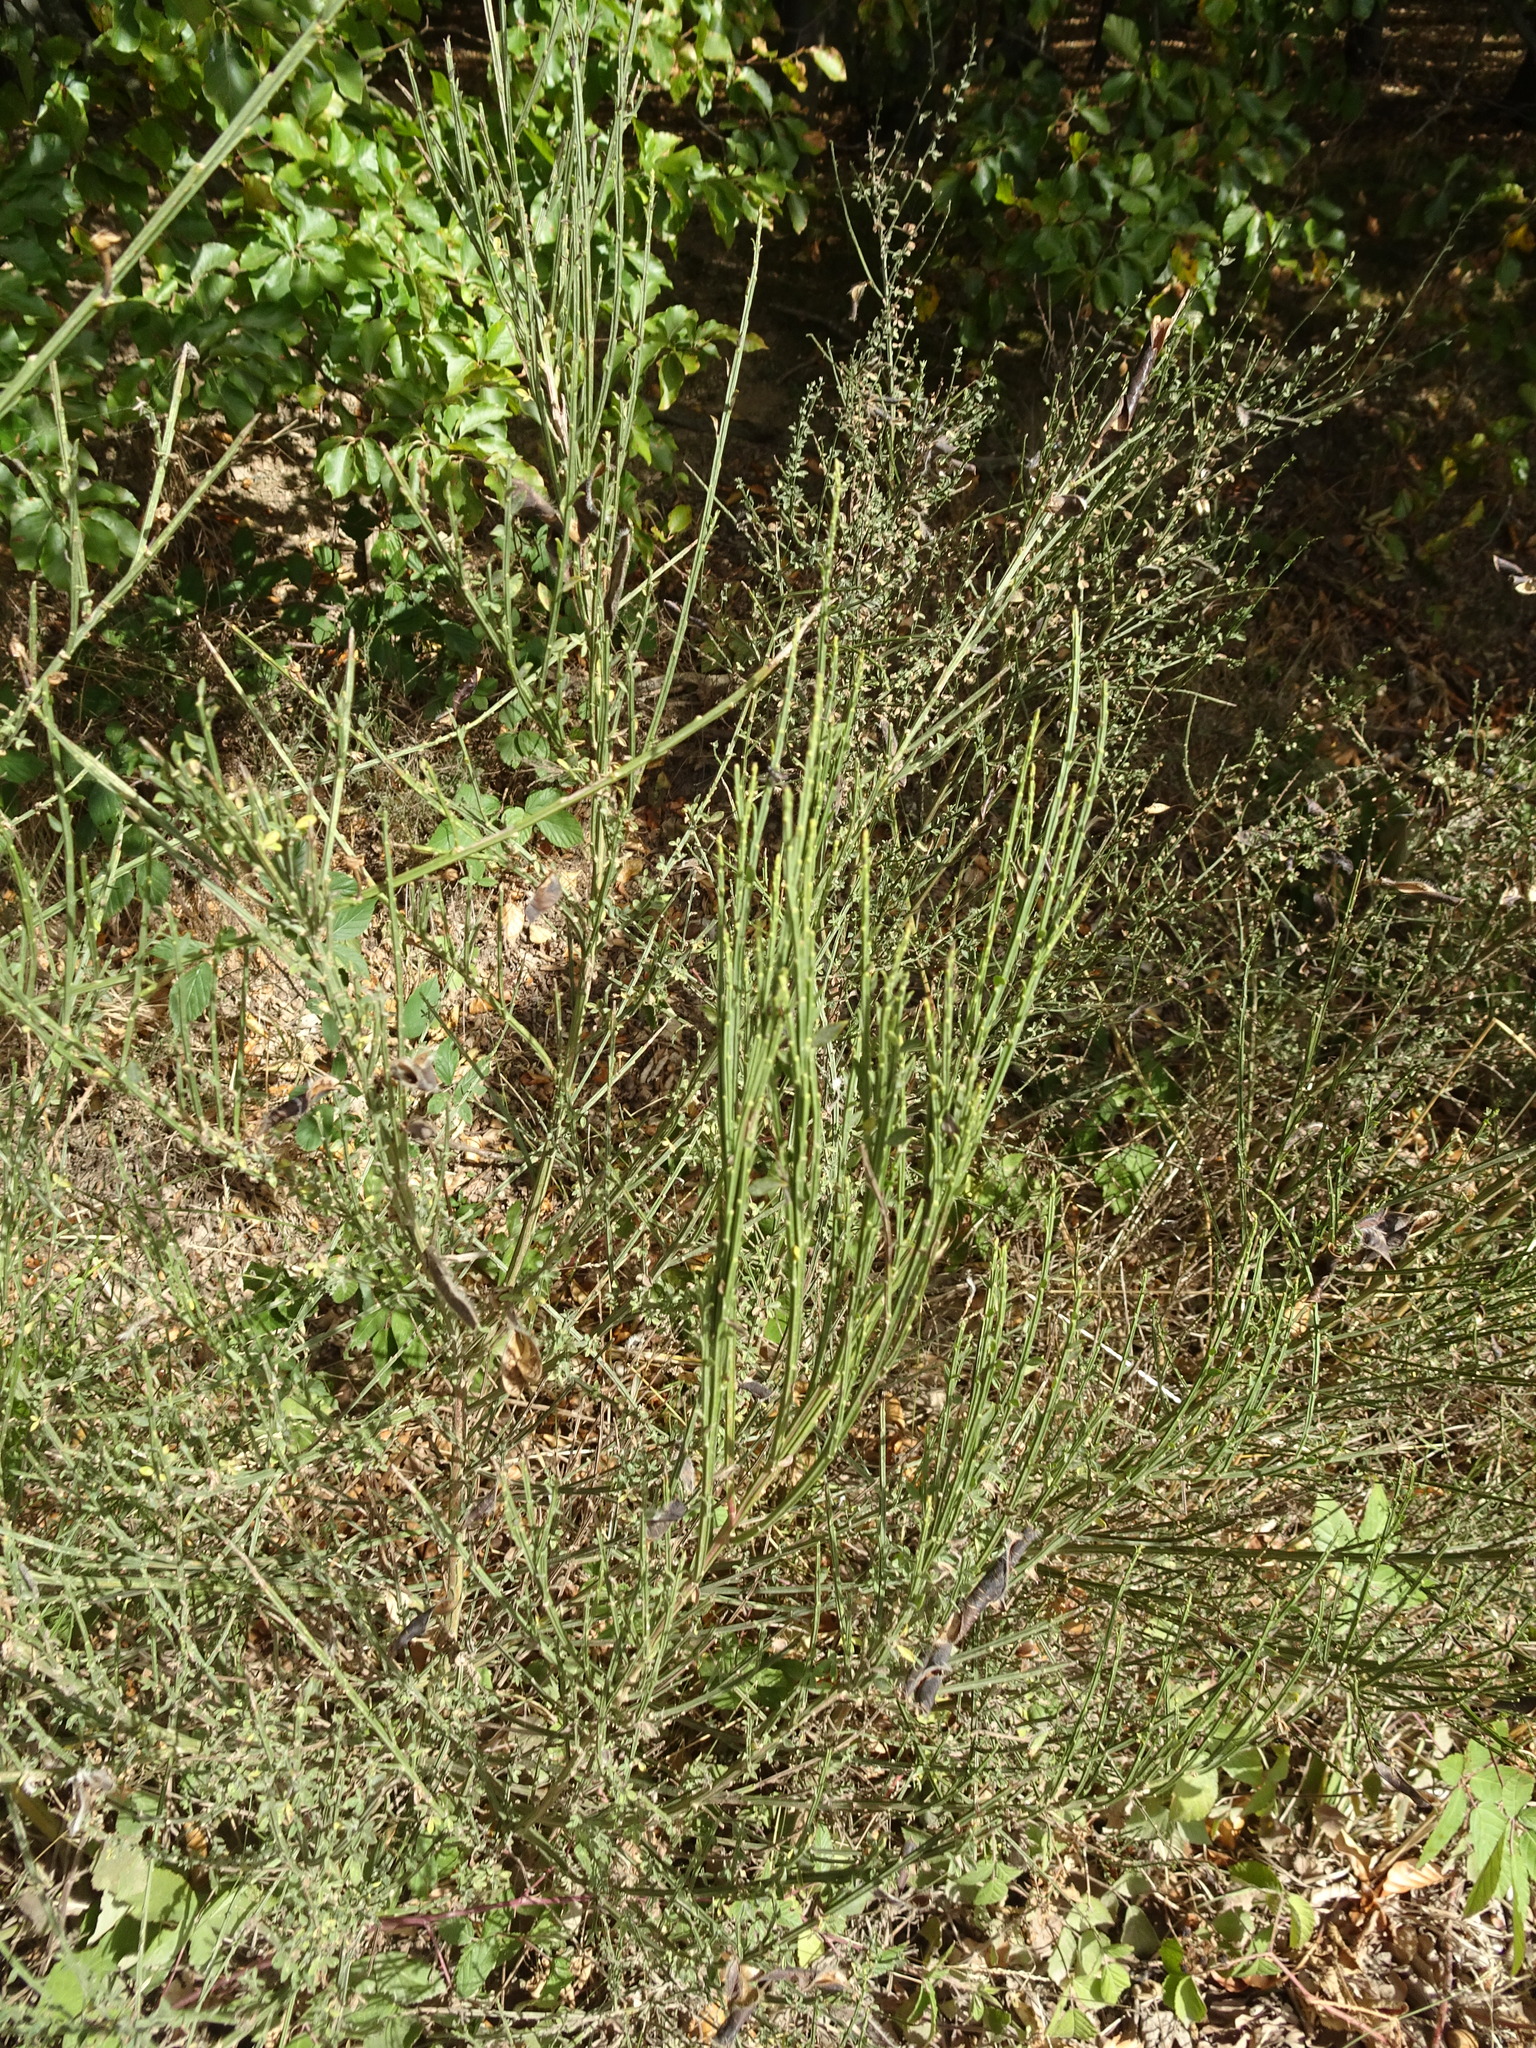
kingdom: Plantae
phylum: Tracheophyta
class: Magnoliopsida
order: Fabales
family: Fabaceae
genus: Cytisus
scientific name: Cytisus scoparius
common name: Scotch broom
